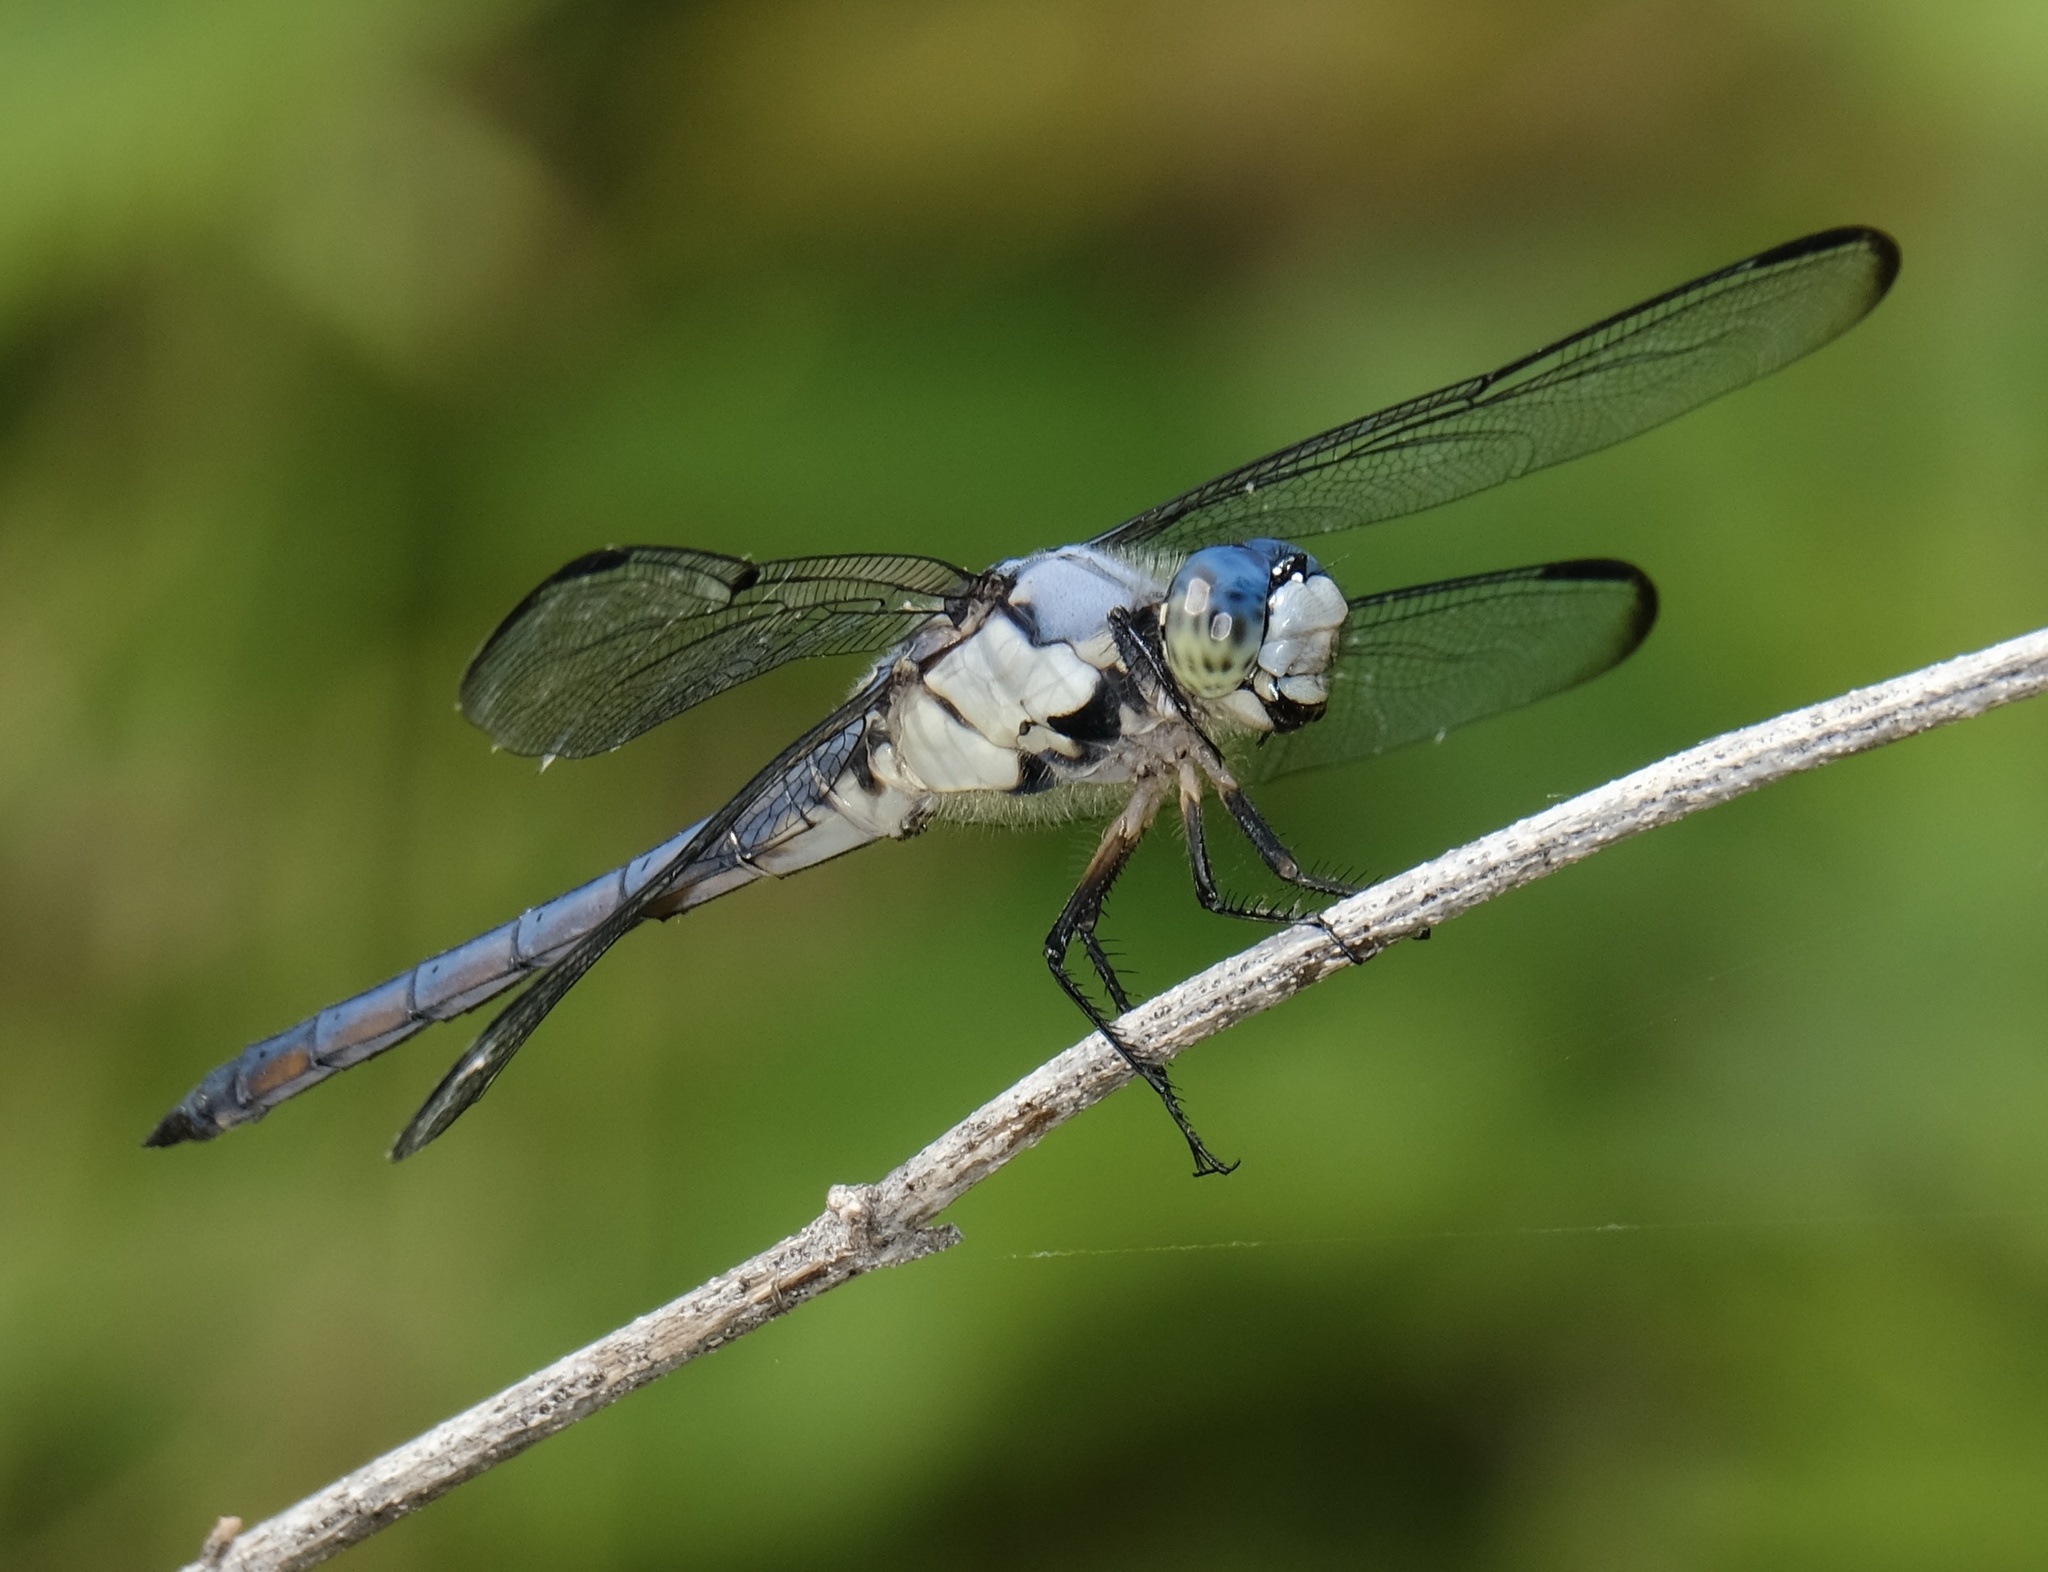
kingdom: Animalia
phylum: Arthropoda
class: Insecta
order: Odonata
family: Libellulidae
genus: Libellula
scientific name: Libellula vibrans
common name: Great blue skimmer
